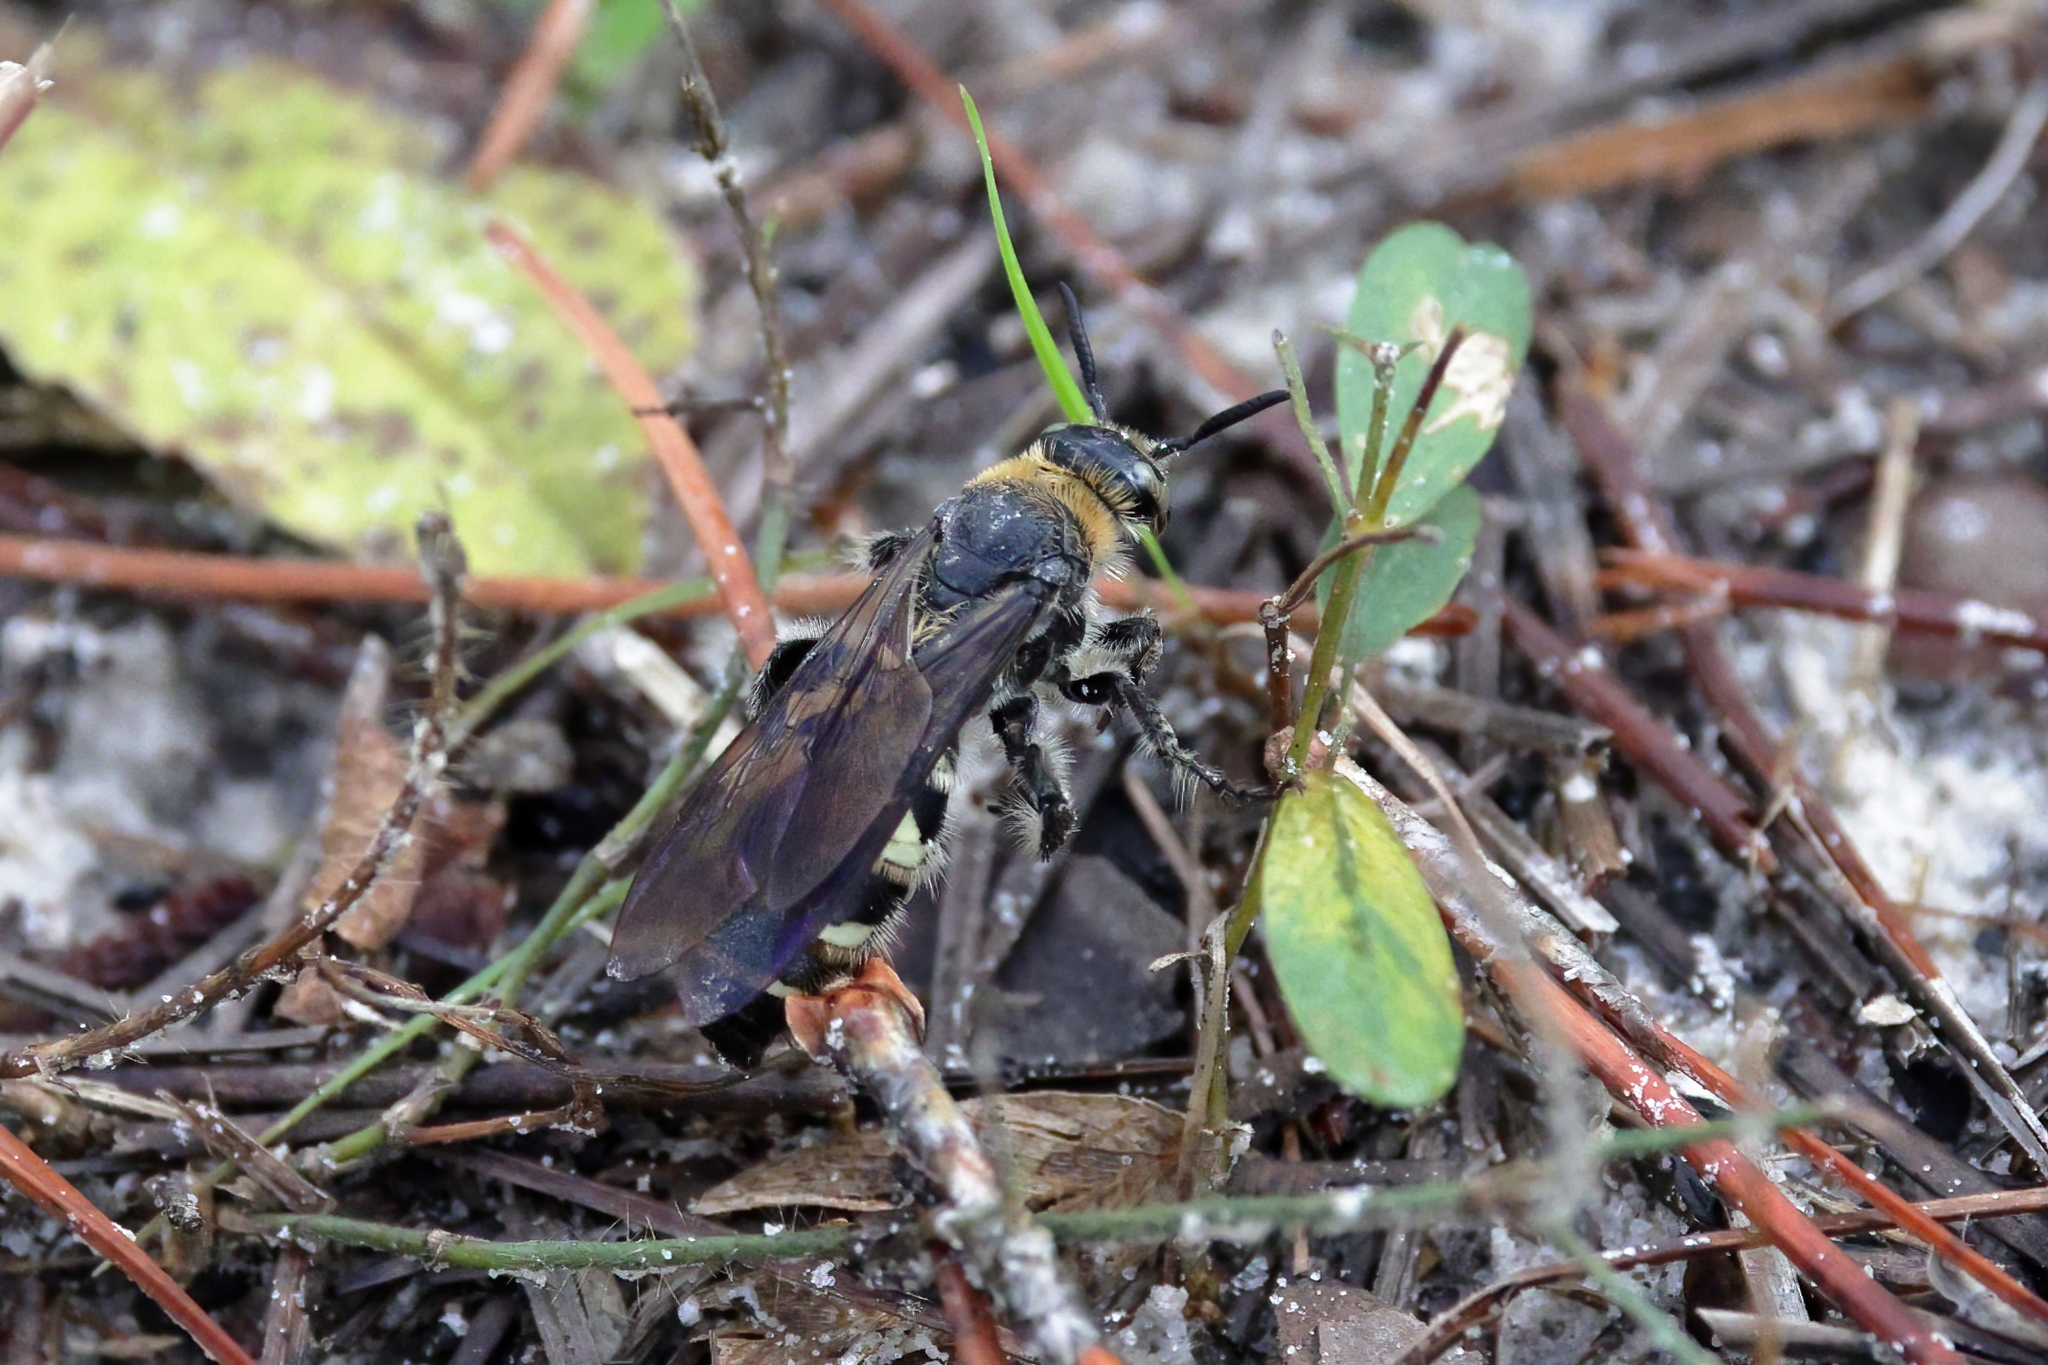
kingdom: Animalia
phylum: Arthropoda
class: Insecta
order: Hymenoptera
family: Scoliidae
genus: Dielis
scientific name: Dielis
